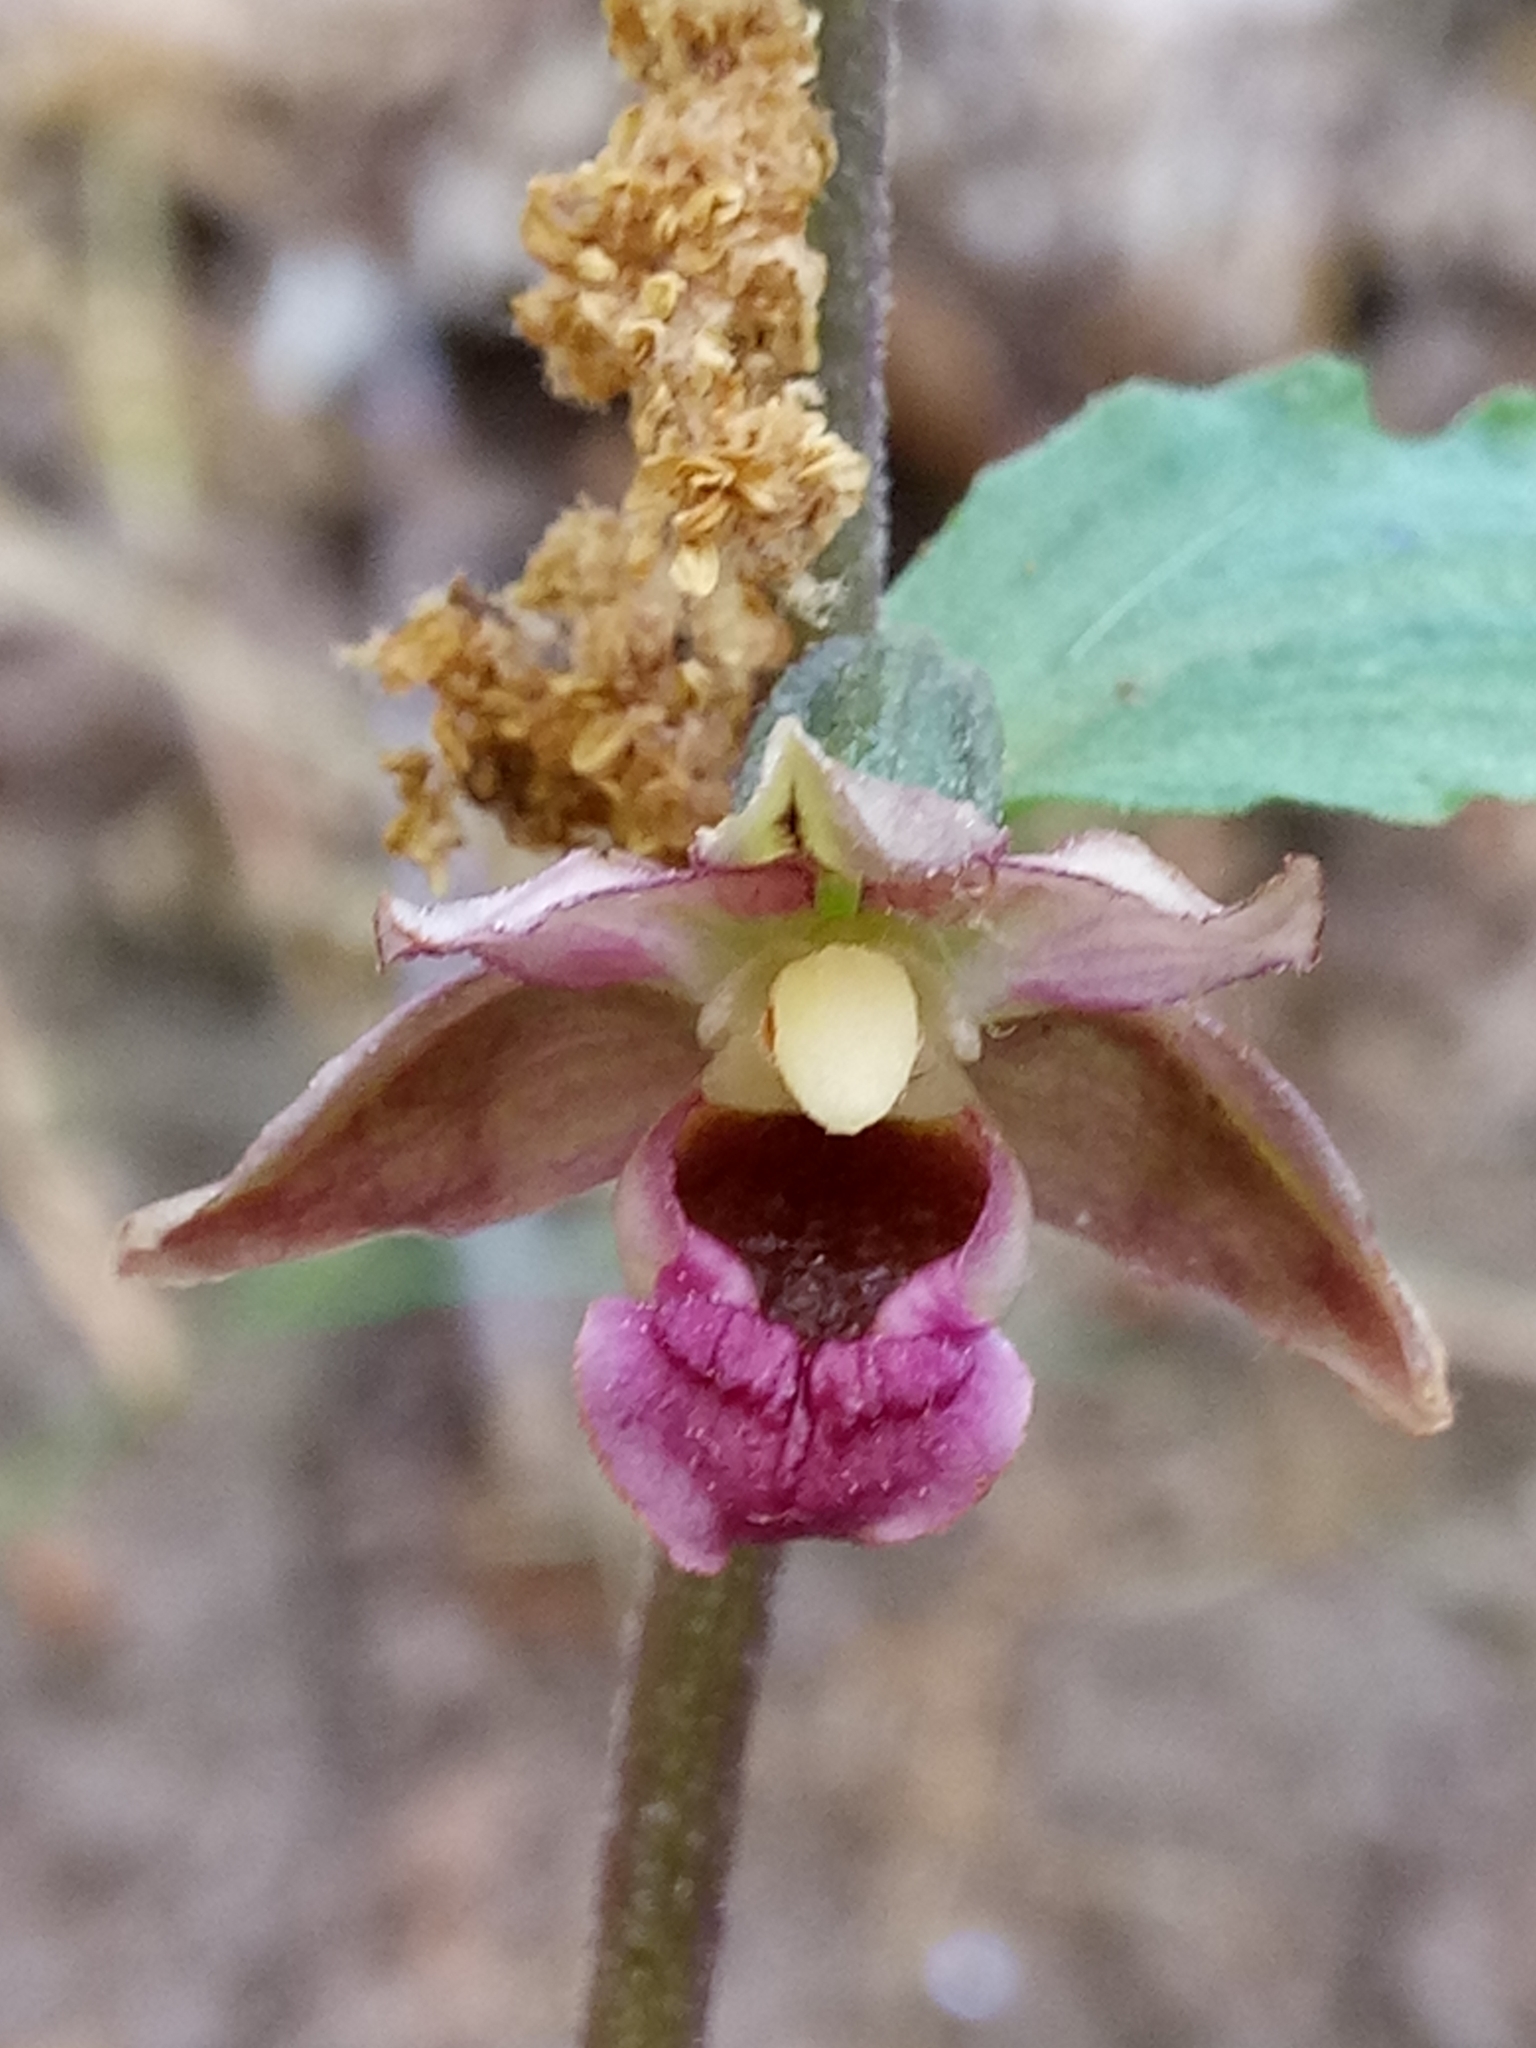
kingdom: Plantae
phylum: Tracheophyta
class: Liliopsida
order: Asparagales
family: Orchidaceae
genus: Epipactis
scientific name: Epipactis helleborine
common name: Broad-leaved helleborine
